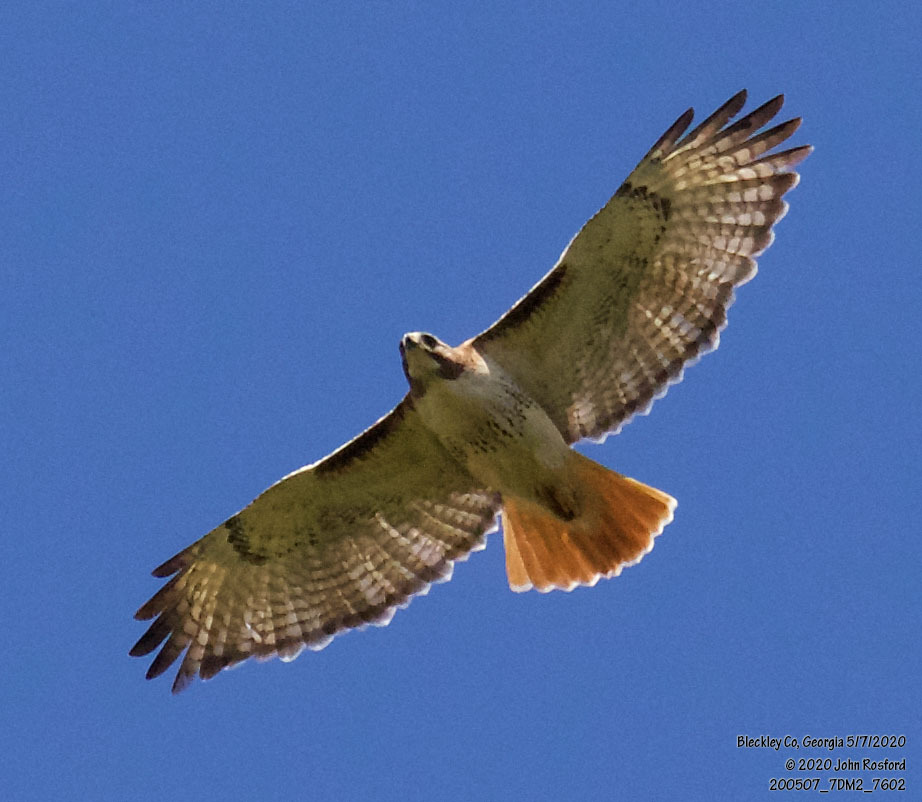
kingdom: Animalia
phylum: Chordata
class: Aves
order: Accipitriformes
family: Accipitridae
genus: Buteo
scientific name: Buteo jamaicensis
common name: Red-tailed hawk
